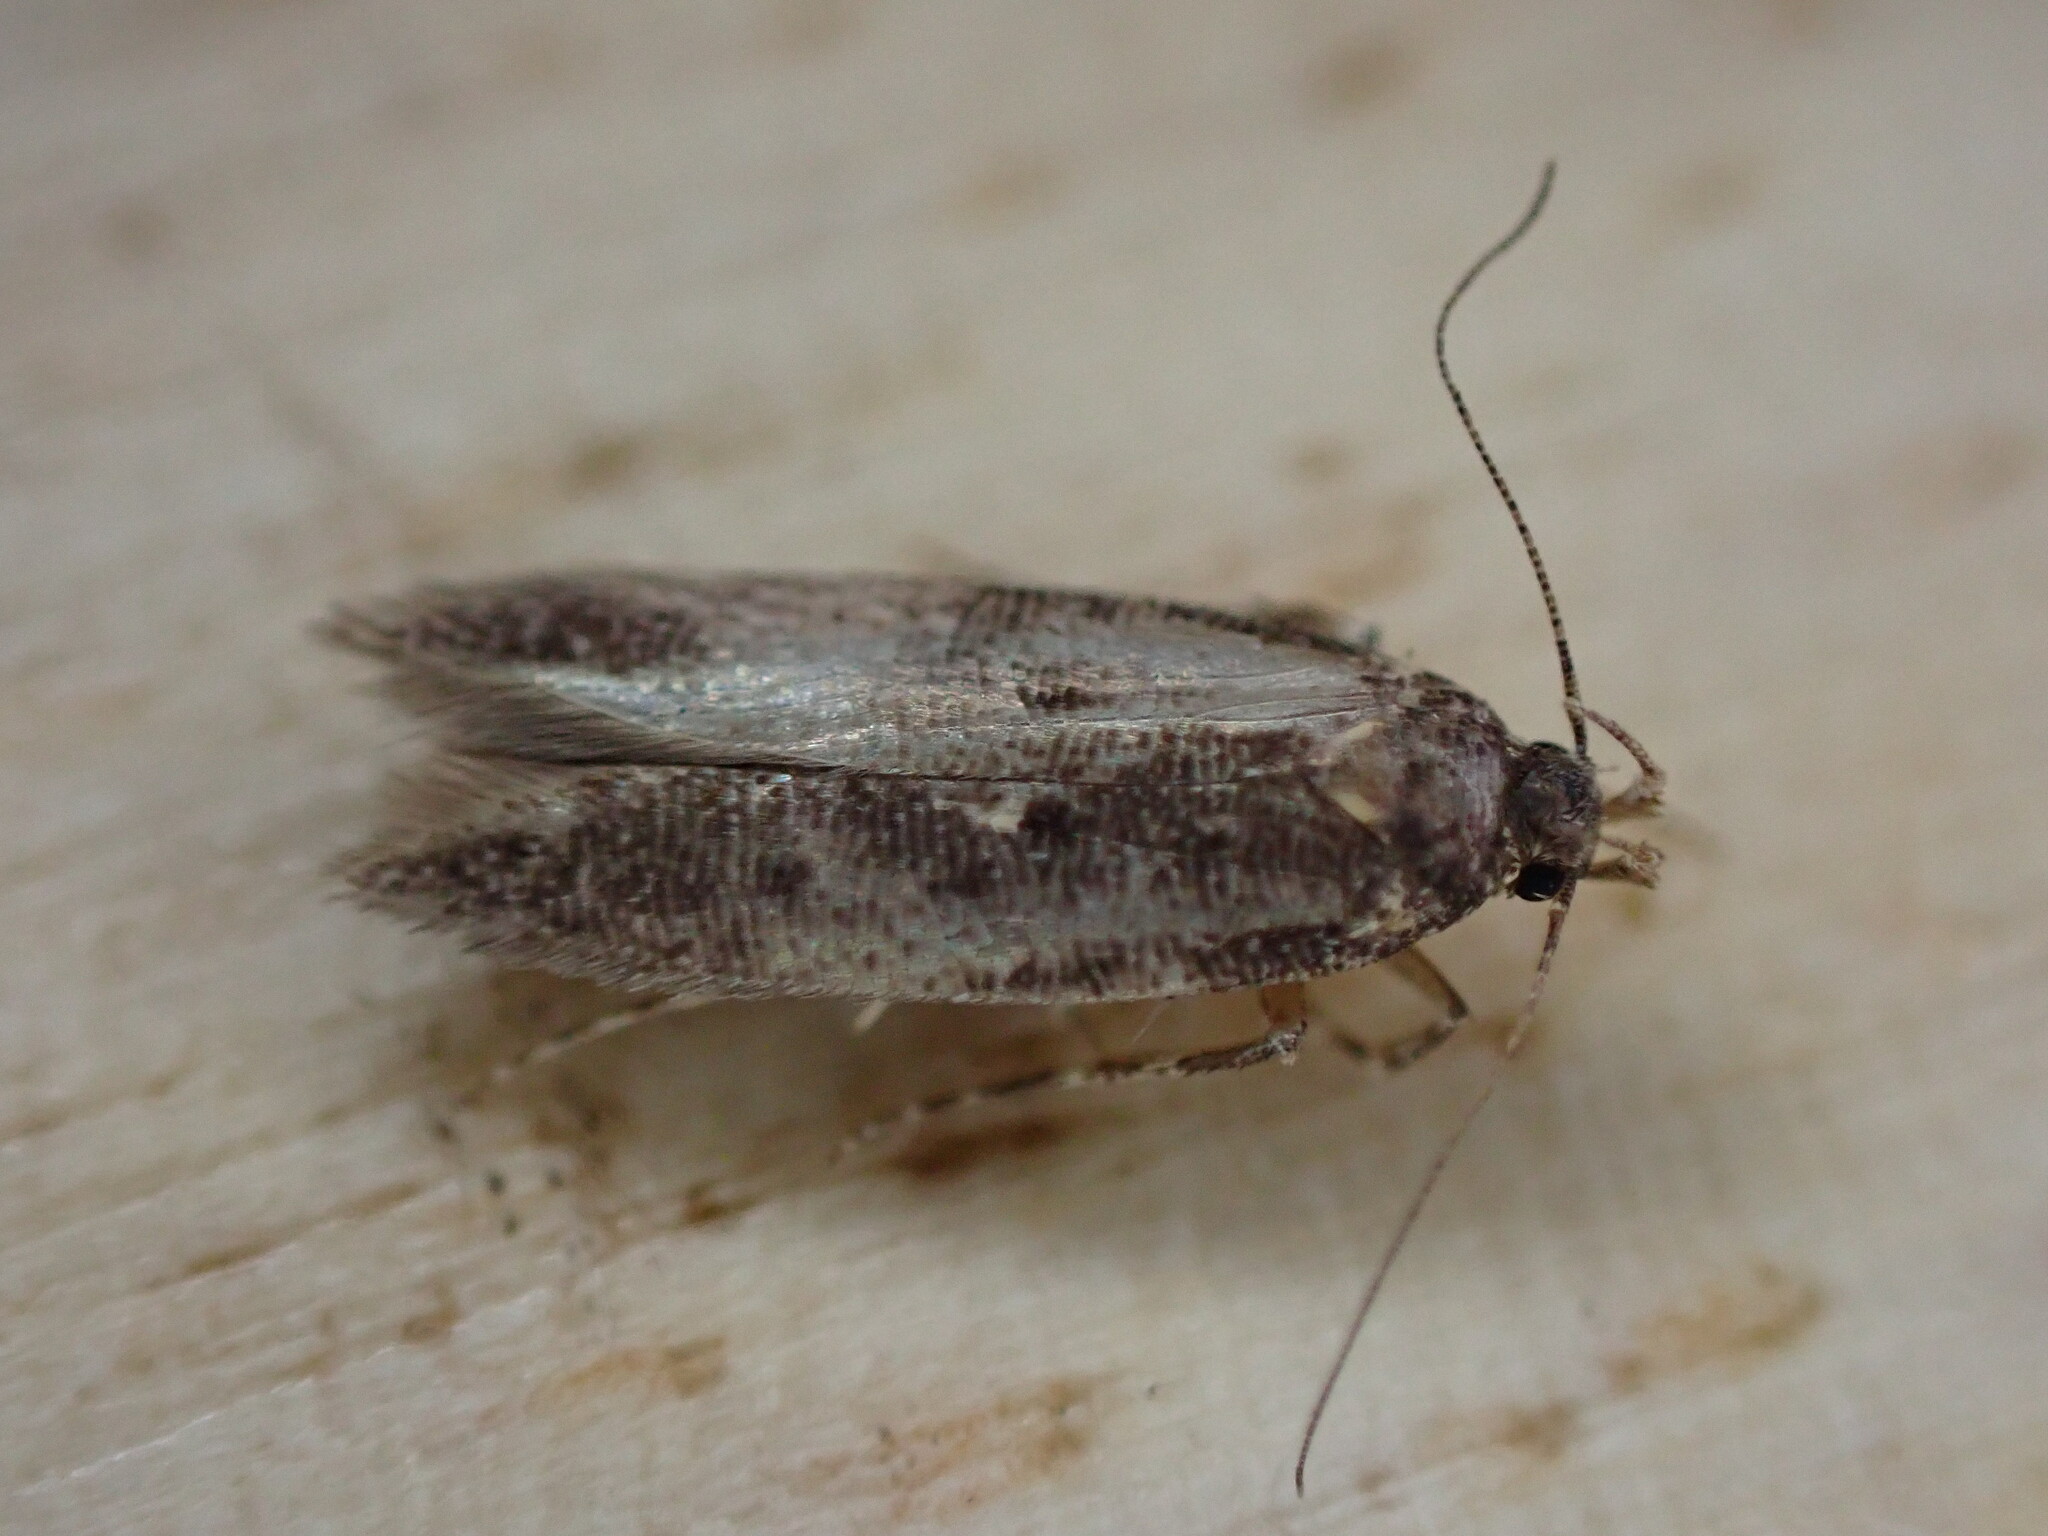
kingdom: Animalia
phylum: Arthropoda
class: Insecta
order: Lepidoptera
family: Gelechiidae
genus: Bryotropha
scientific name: Bryotropha affinis
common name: Dark groundling
